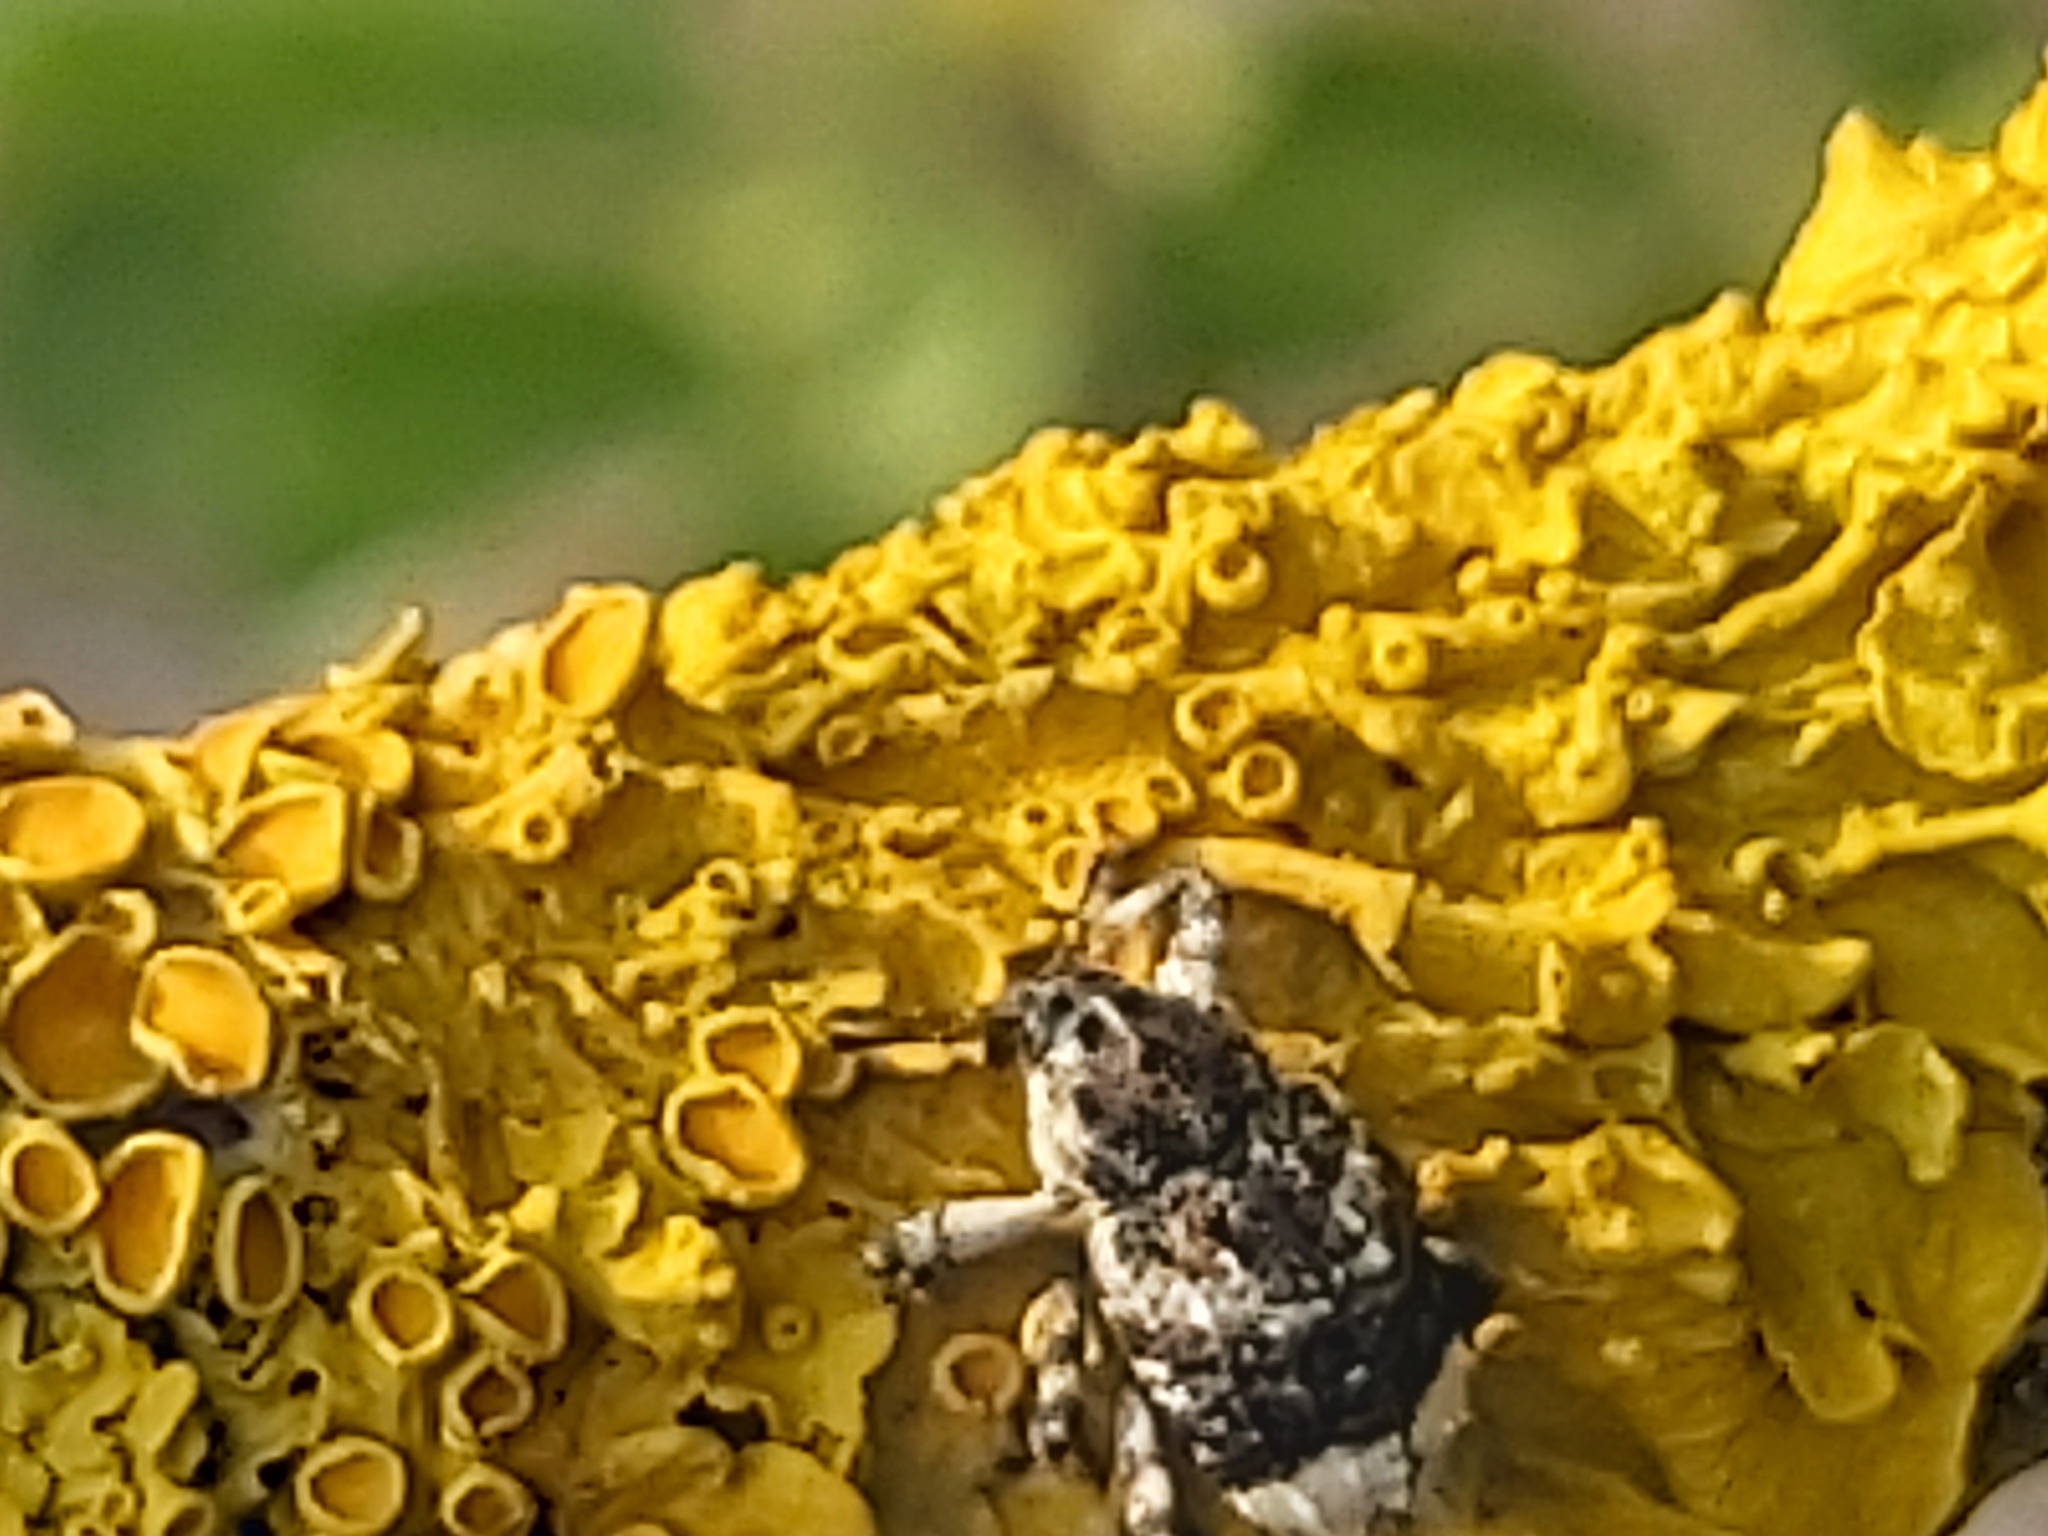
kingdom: Animalia
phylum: Arthropoda
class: Insecta
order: Coleoptera
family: Curculionidae
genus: Cryptorhynchus
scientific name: Cryptorhynchus lapathi
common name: Weevil
